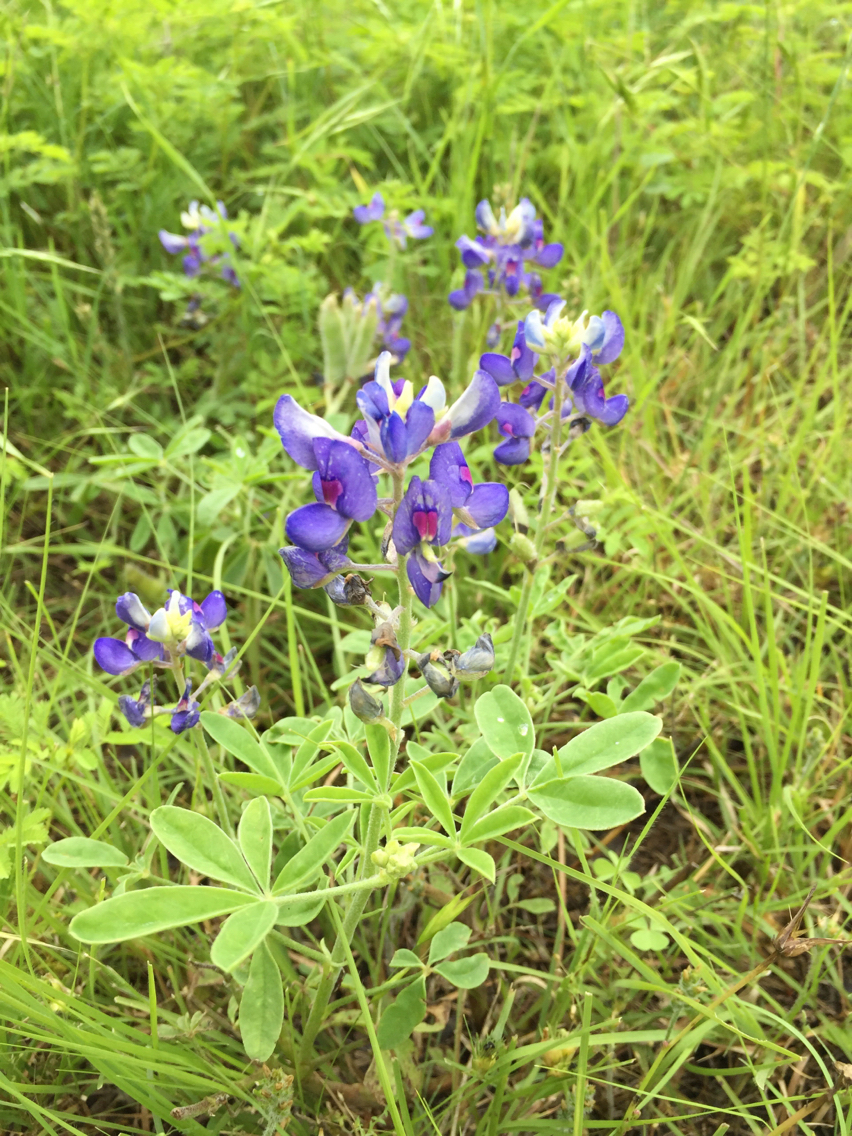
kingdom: Plantae
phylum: Tracheophyta
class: Magnoliopsida
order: Fabales
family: Fabaceae
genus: Lupinus
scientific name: Lupinus texensis
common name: Texas bluebonnet
